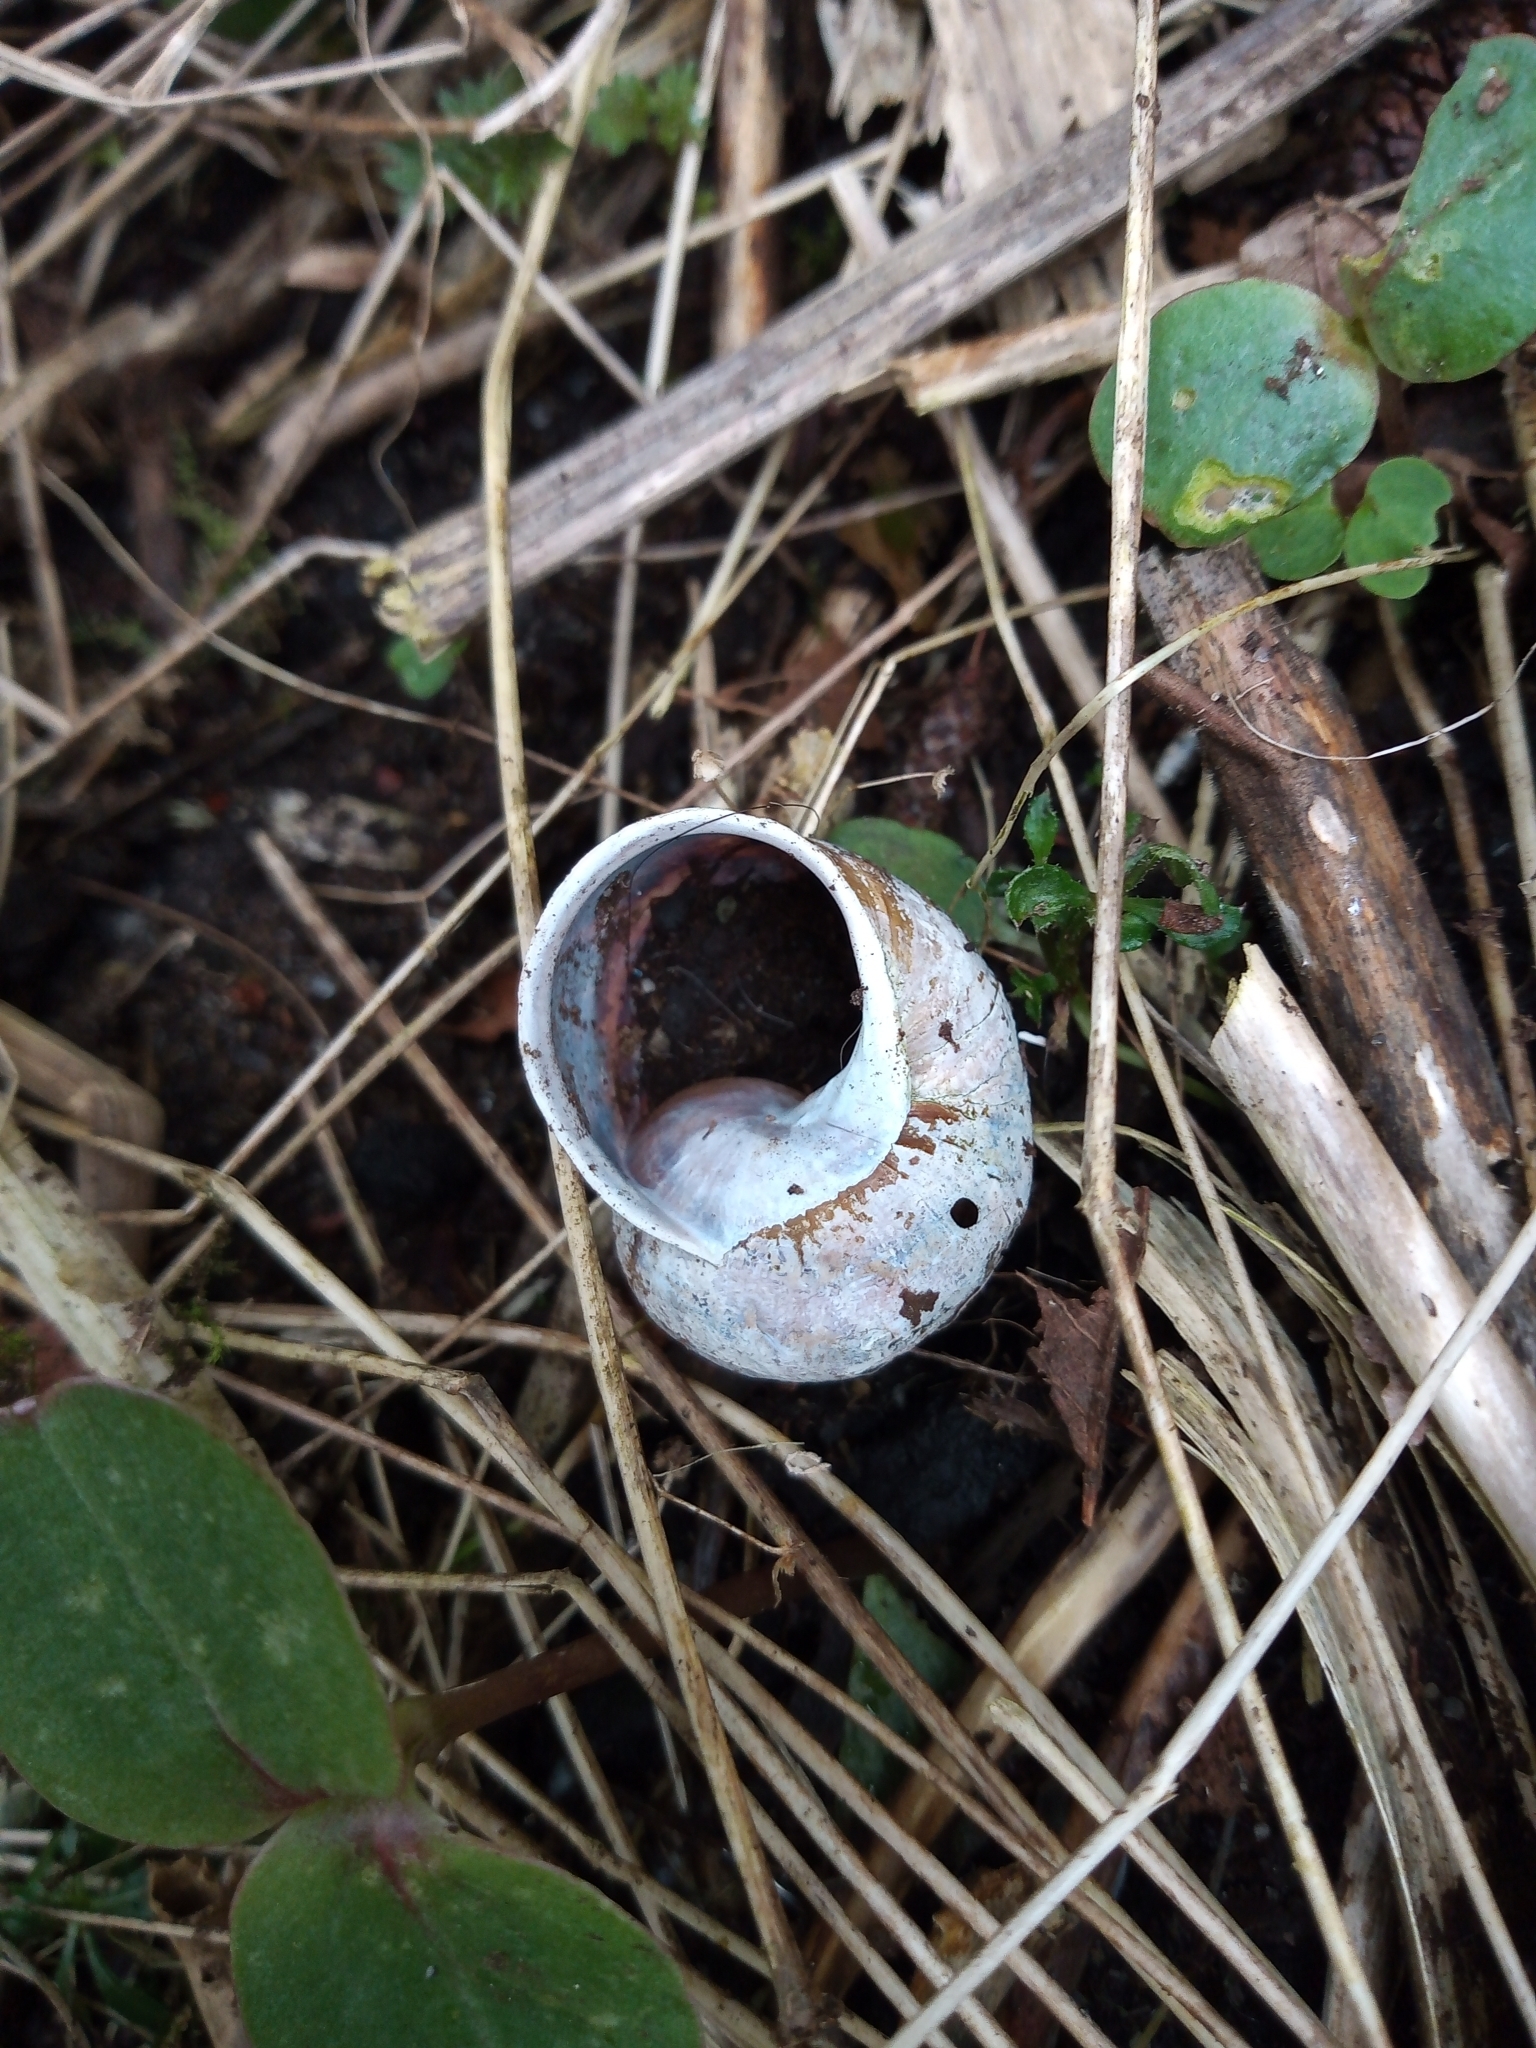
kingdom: Animalia
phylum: Mollusca
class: Gastropoda
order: Stylommatophora
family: Helicidae
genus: Cornu
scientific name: Cornu aspersum
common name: Brown garden snail
